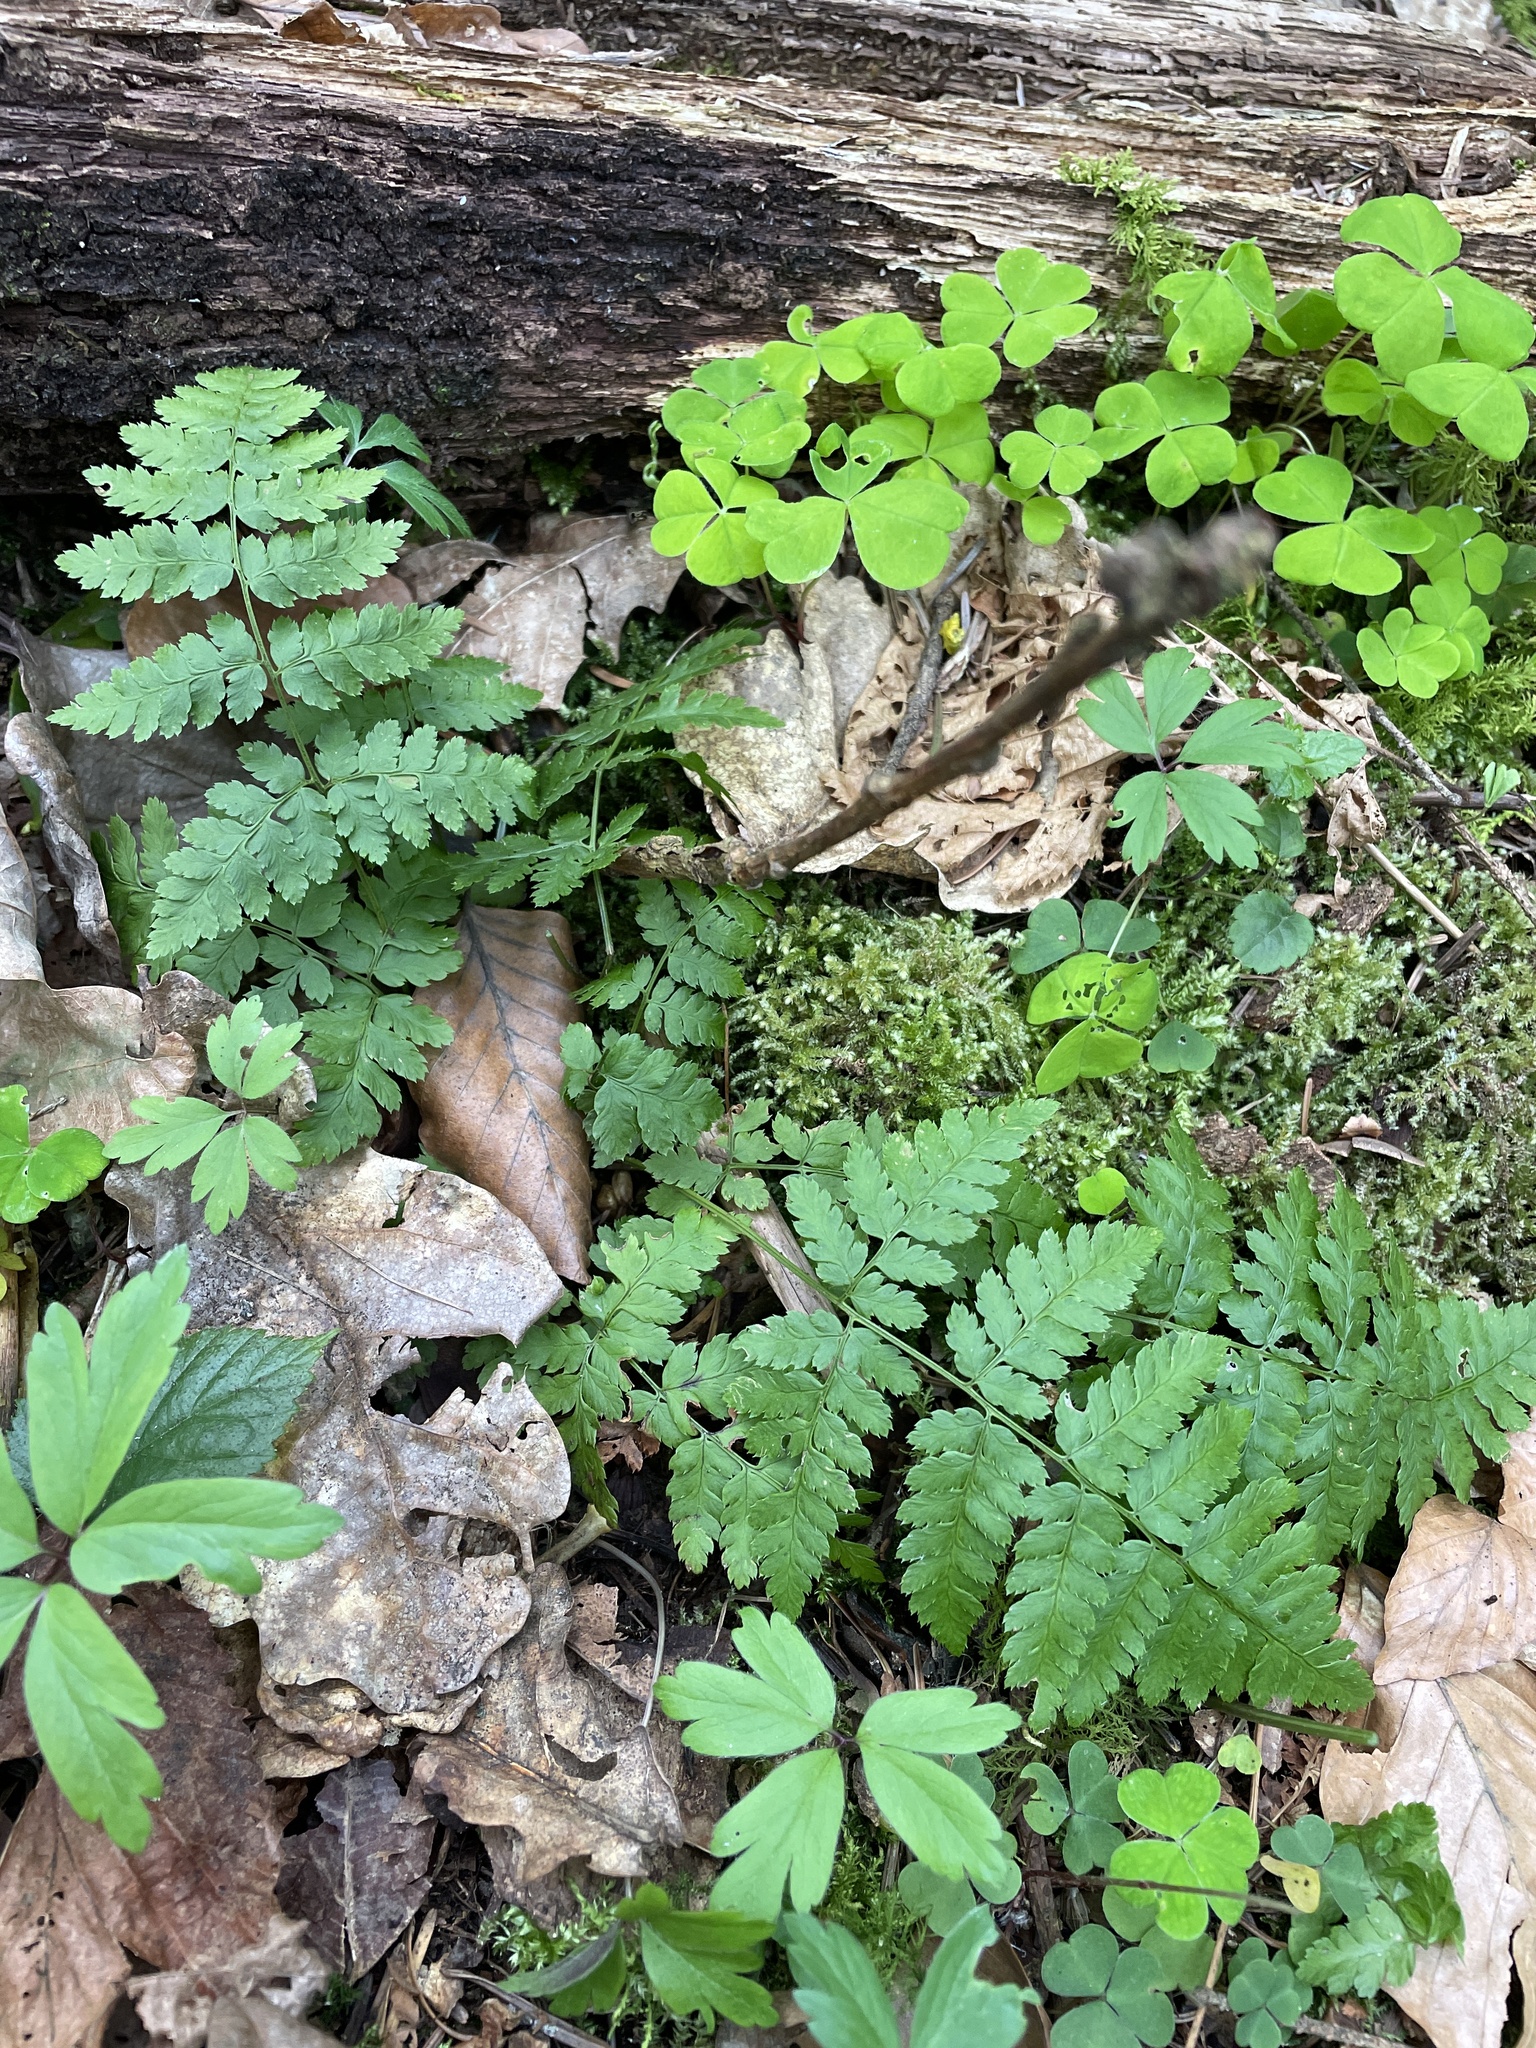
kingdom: Plantae
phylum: Tracheophyta
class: Polypodiopsida
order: Polypodiales
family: Dryopteridaceae
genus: Dryopteris
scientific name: Dryopteris carthusiana
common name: Narrow buckler-fern
